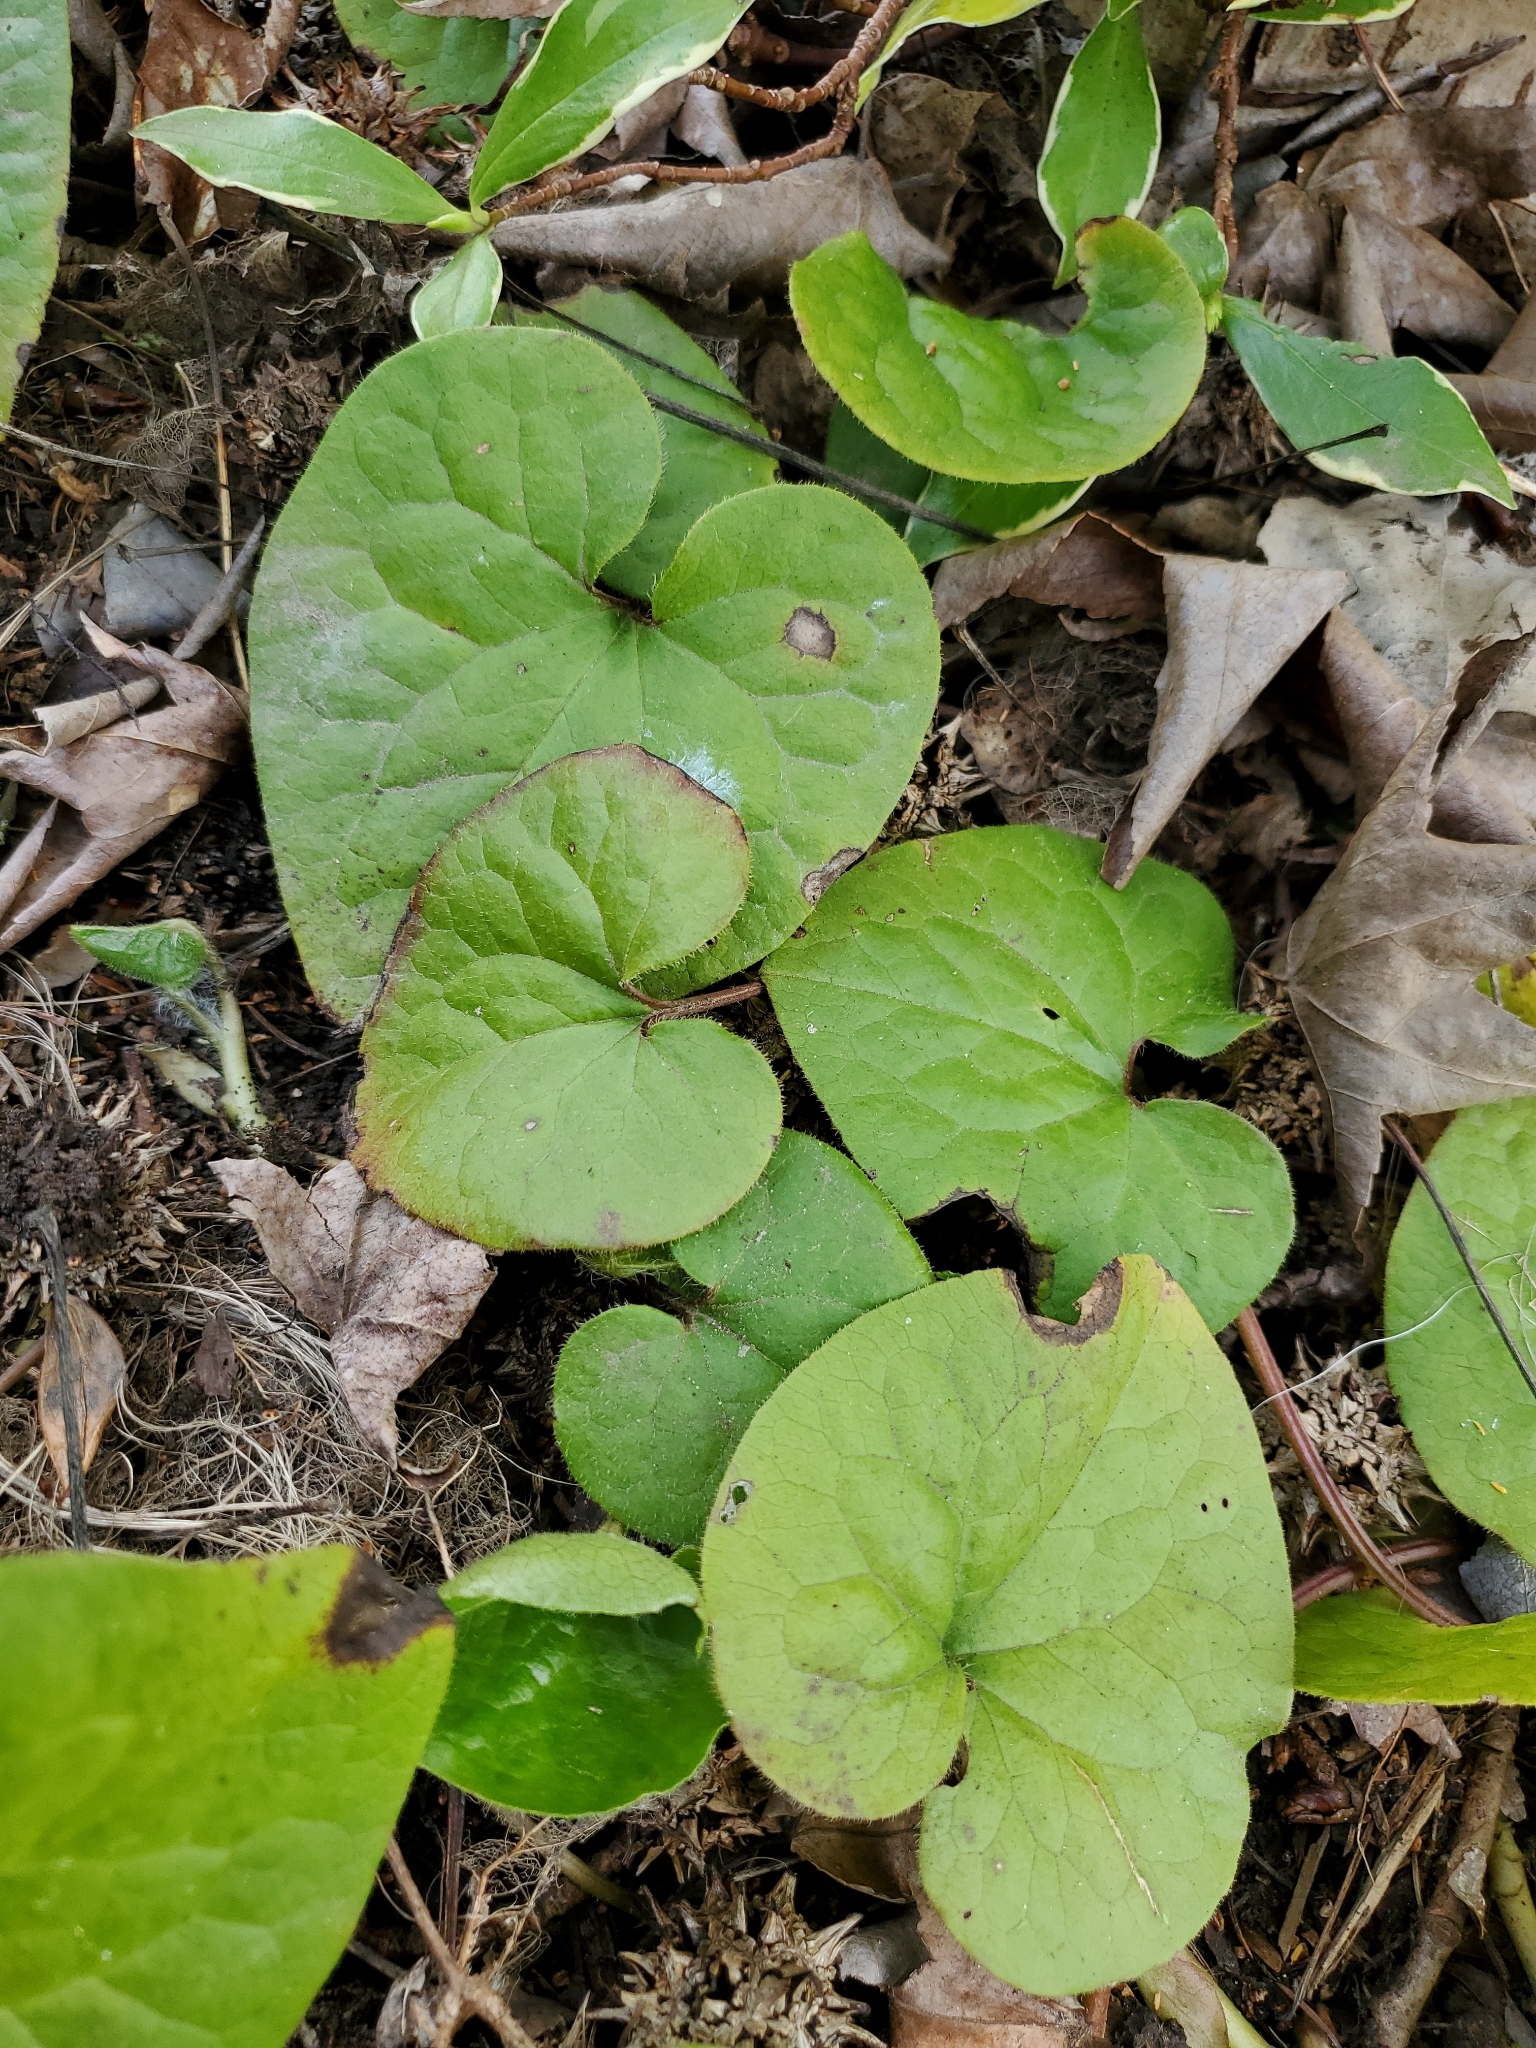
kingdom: Plantae
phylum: Tracheophyta
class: Magnoliopsida
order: Piperales
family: Aristolochiaceae
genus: Asarum
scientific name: Asarum caudatum
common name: Wild ginger
